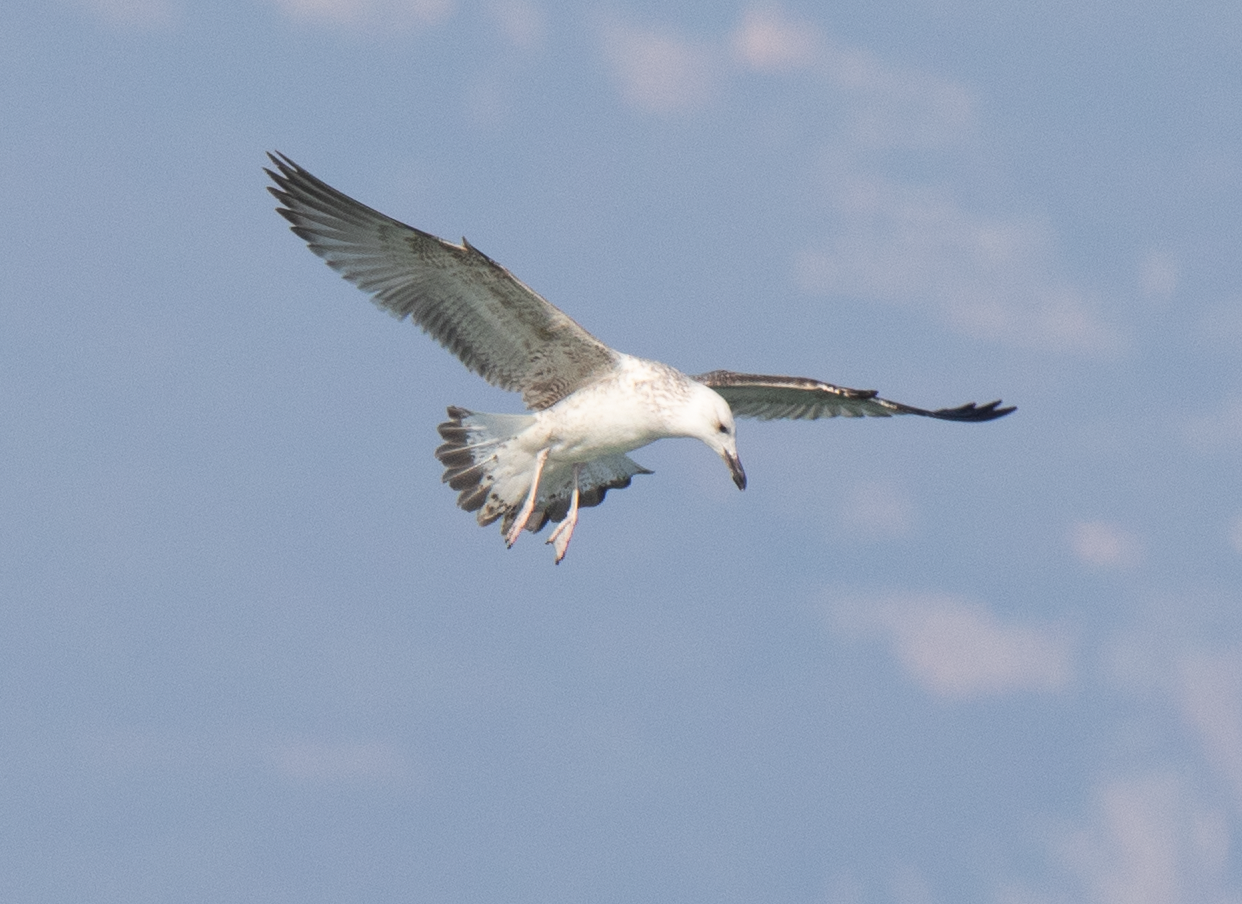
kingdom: Animalia
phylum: Chordata
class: Aves
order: Charadriiformes
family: Laridae
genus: Larus
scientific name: Larus cachinnans
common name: Caspian gull
